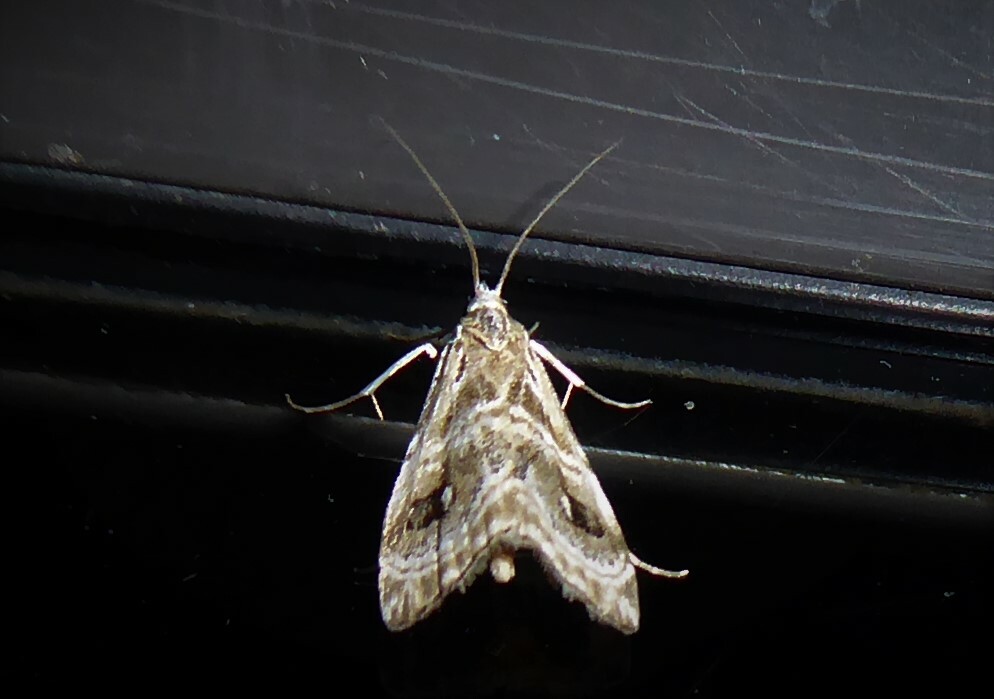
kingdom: Animalia
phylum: Arthropoda
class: Insecta
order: Lepidoptera
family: Crambidae
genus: Gadira
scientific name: Gadira acerella
